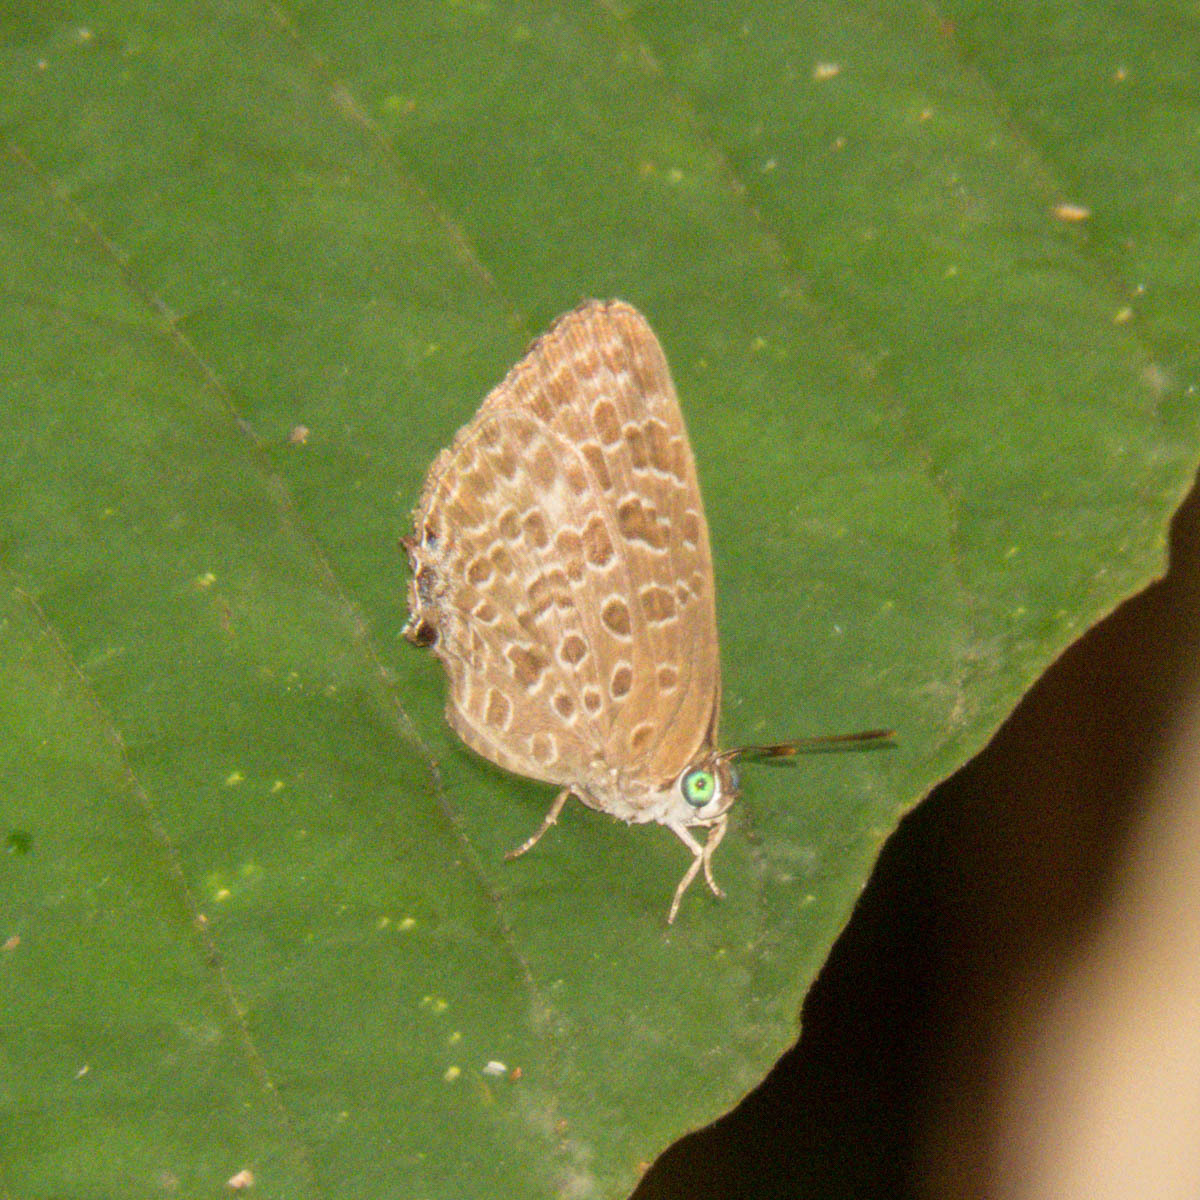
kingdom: Animalia
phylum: Arthropoda
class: Insecta
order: Lepidoptera
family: Lycaenidae
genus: Arhopala
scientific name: Arhopala alitaeus
